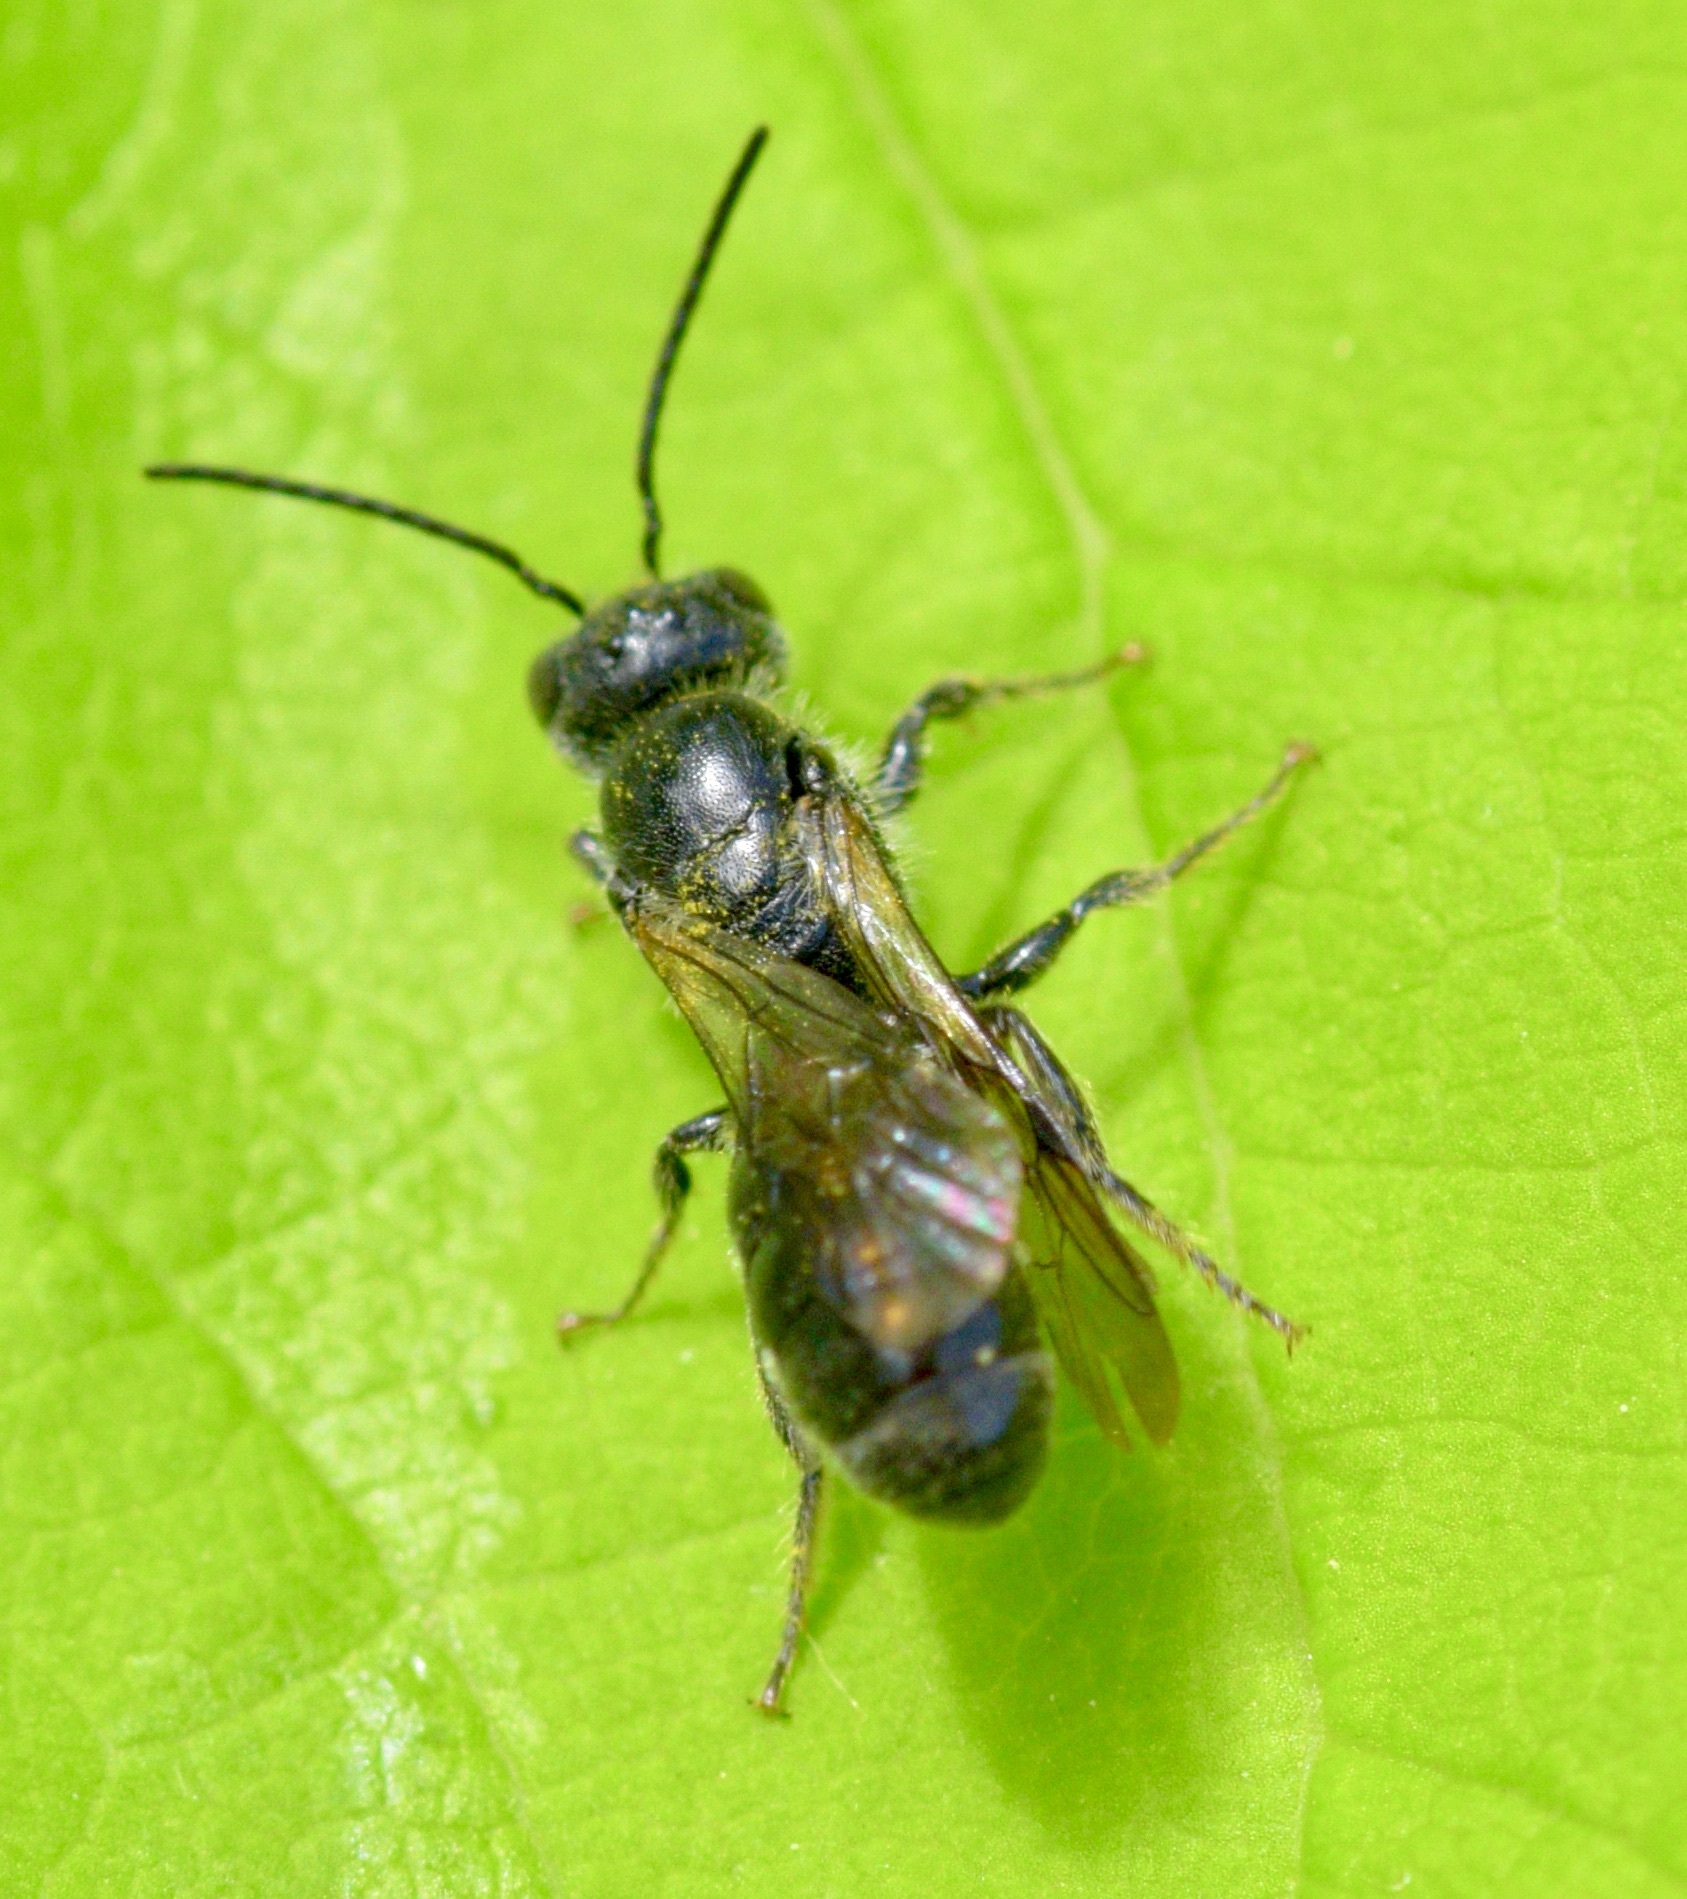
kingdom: Animalia
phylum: Arthropoda
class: Insecta
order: Hymenoptera
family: Megachilidae
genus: Chelostoma
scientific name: Chelostoma philadelphi
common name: Mock-orange scissor bee
